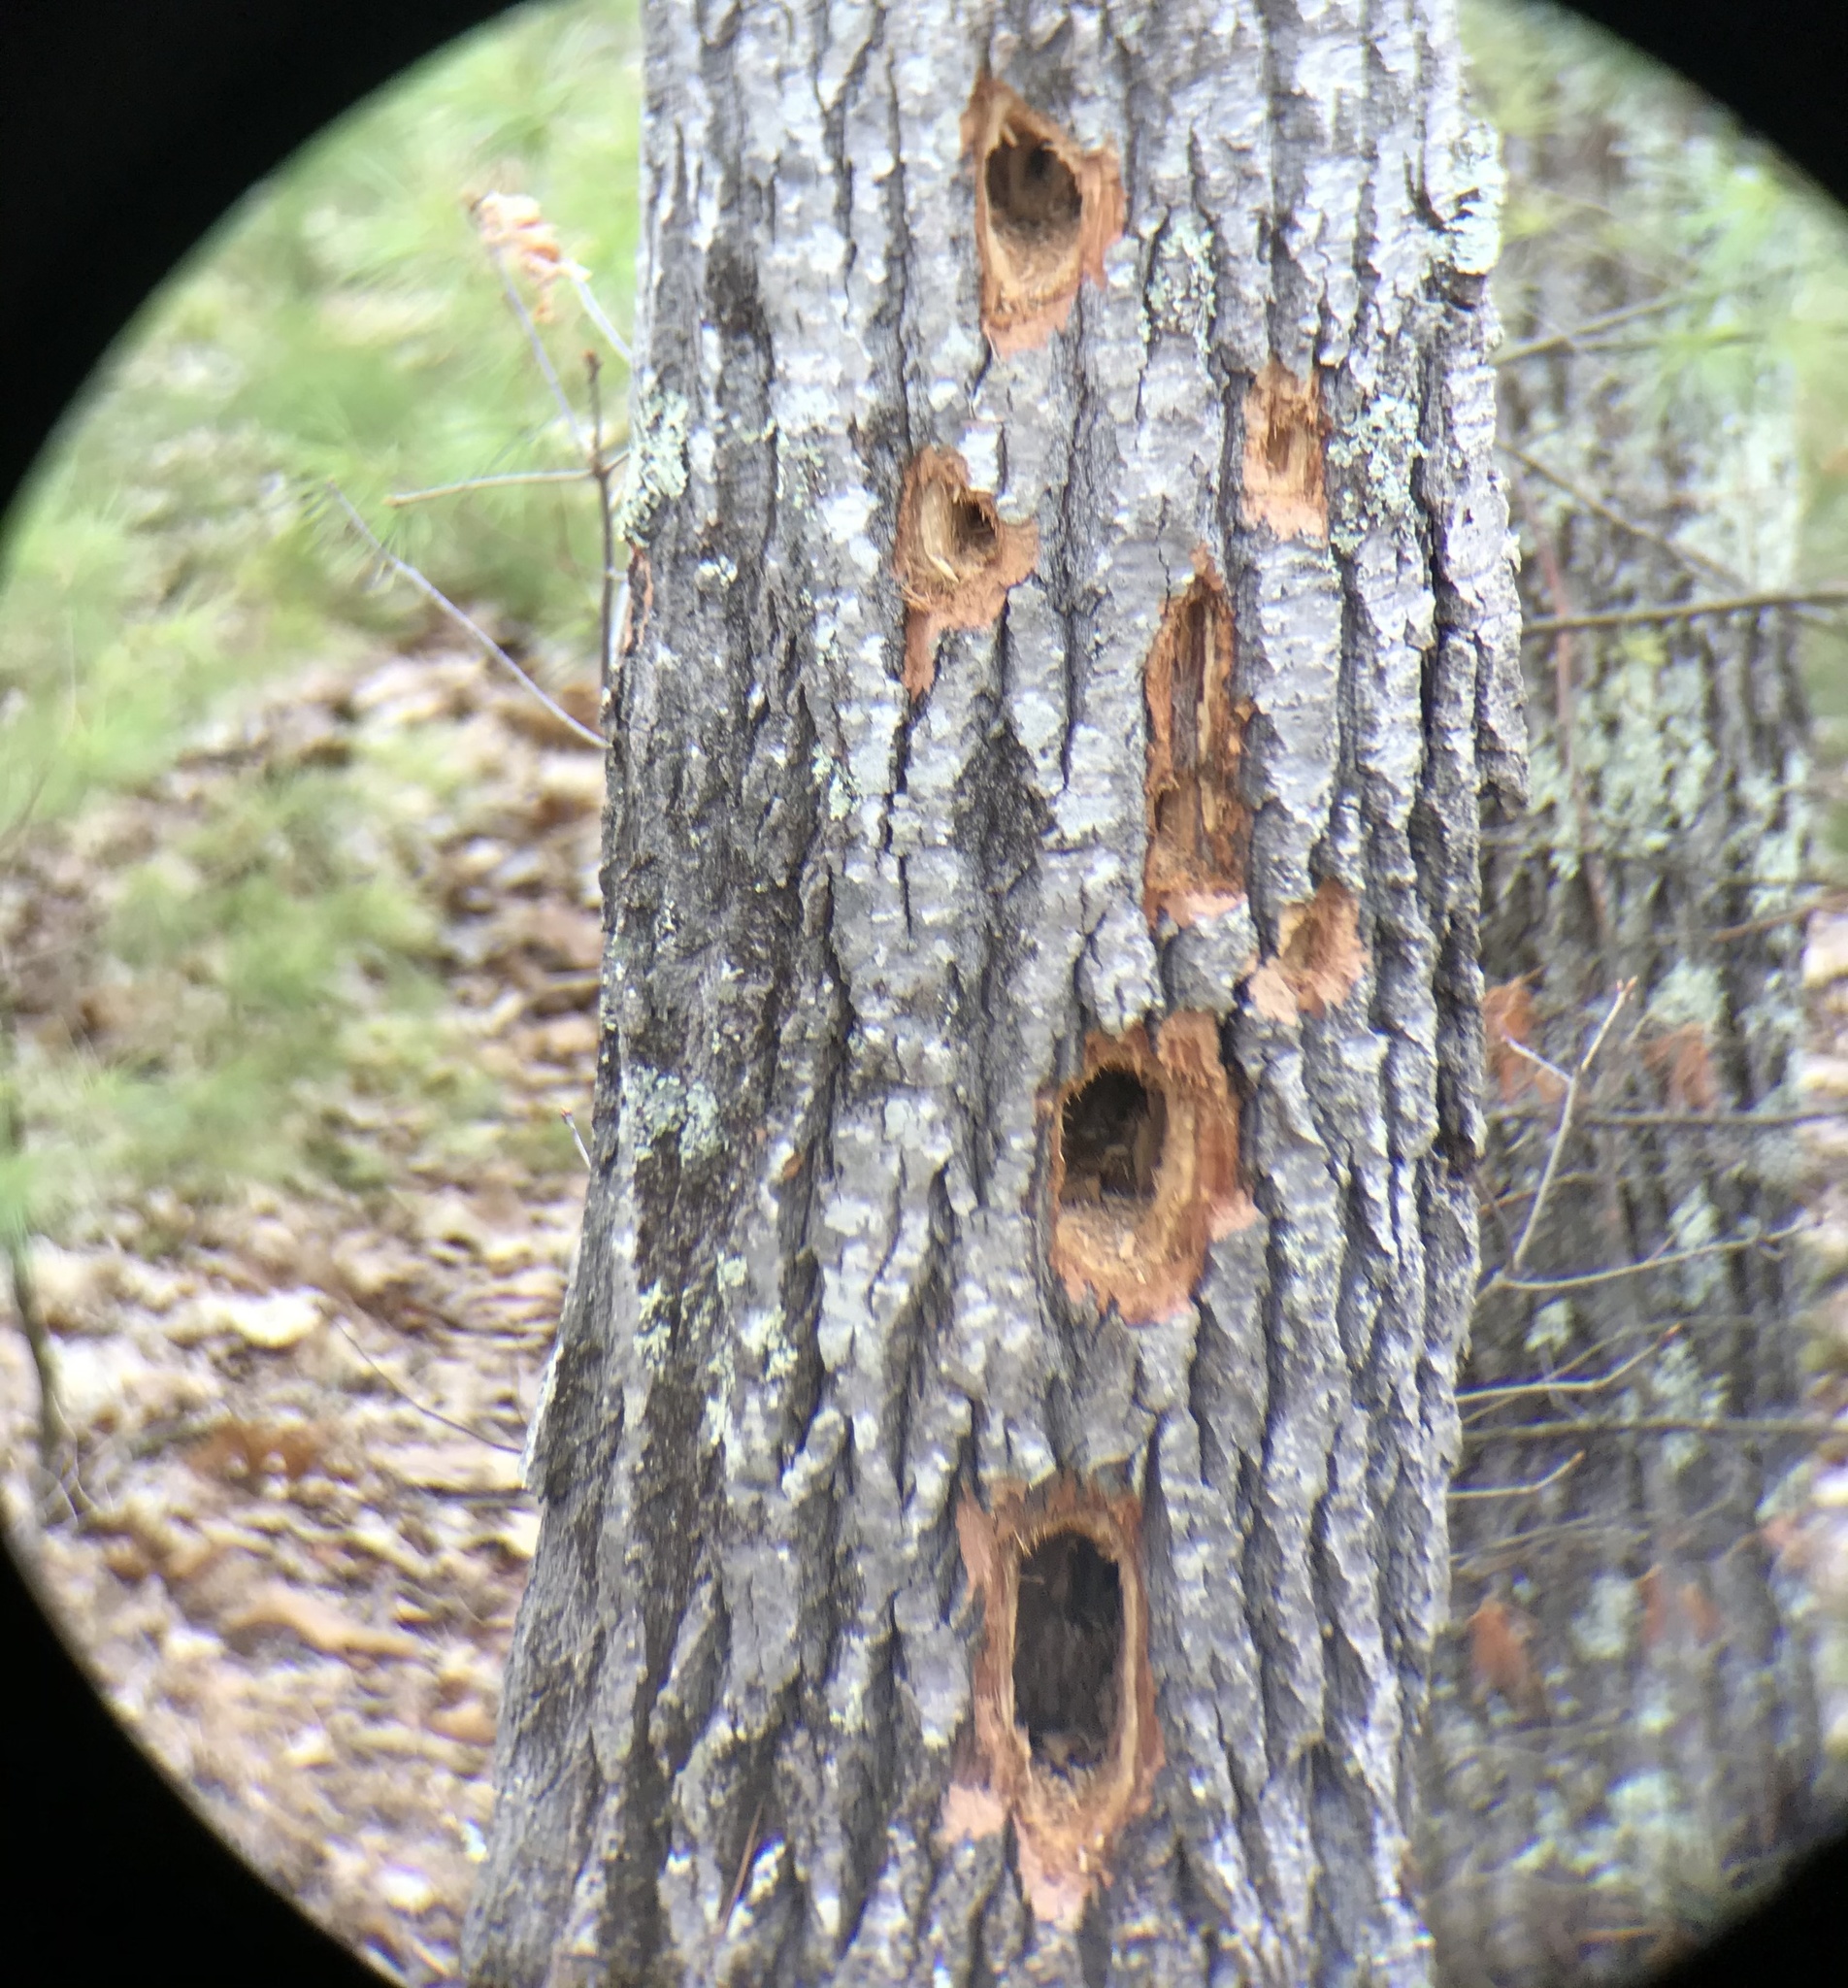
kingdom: Animalia
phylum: Chordata
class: Aves
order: Piciformes
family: Picidae
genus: Dryocopus
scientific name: Dryocopus pileatus
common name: Pileated woodpecker
